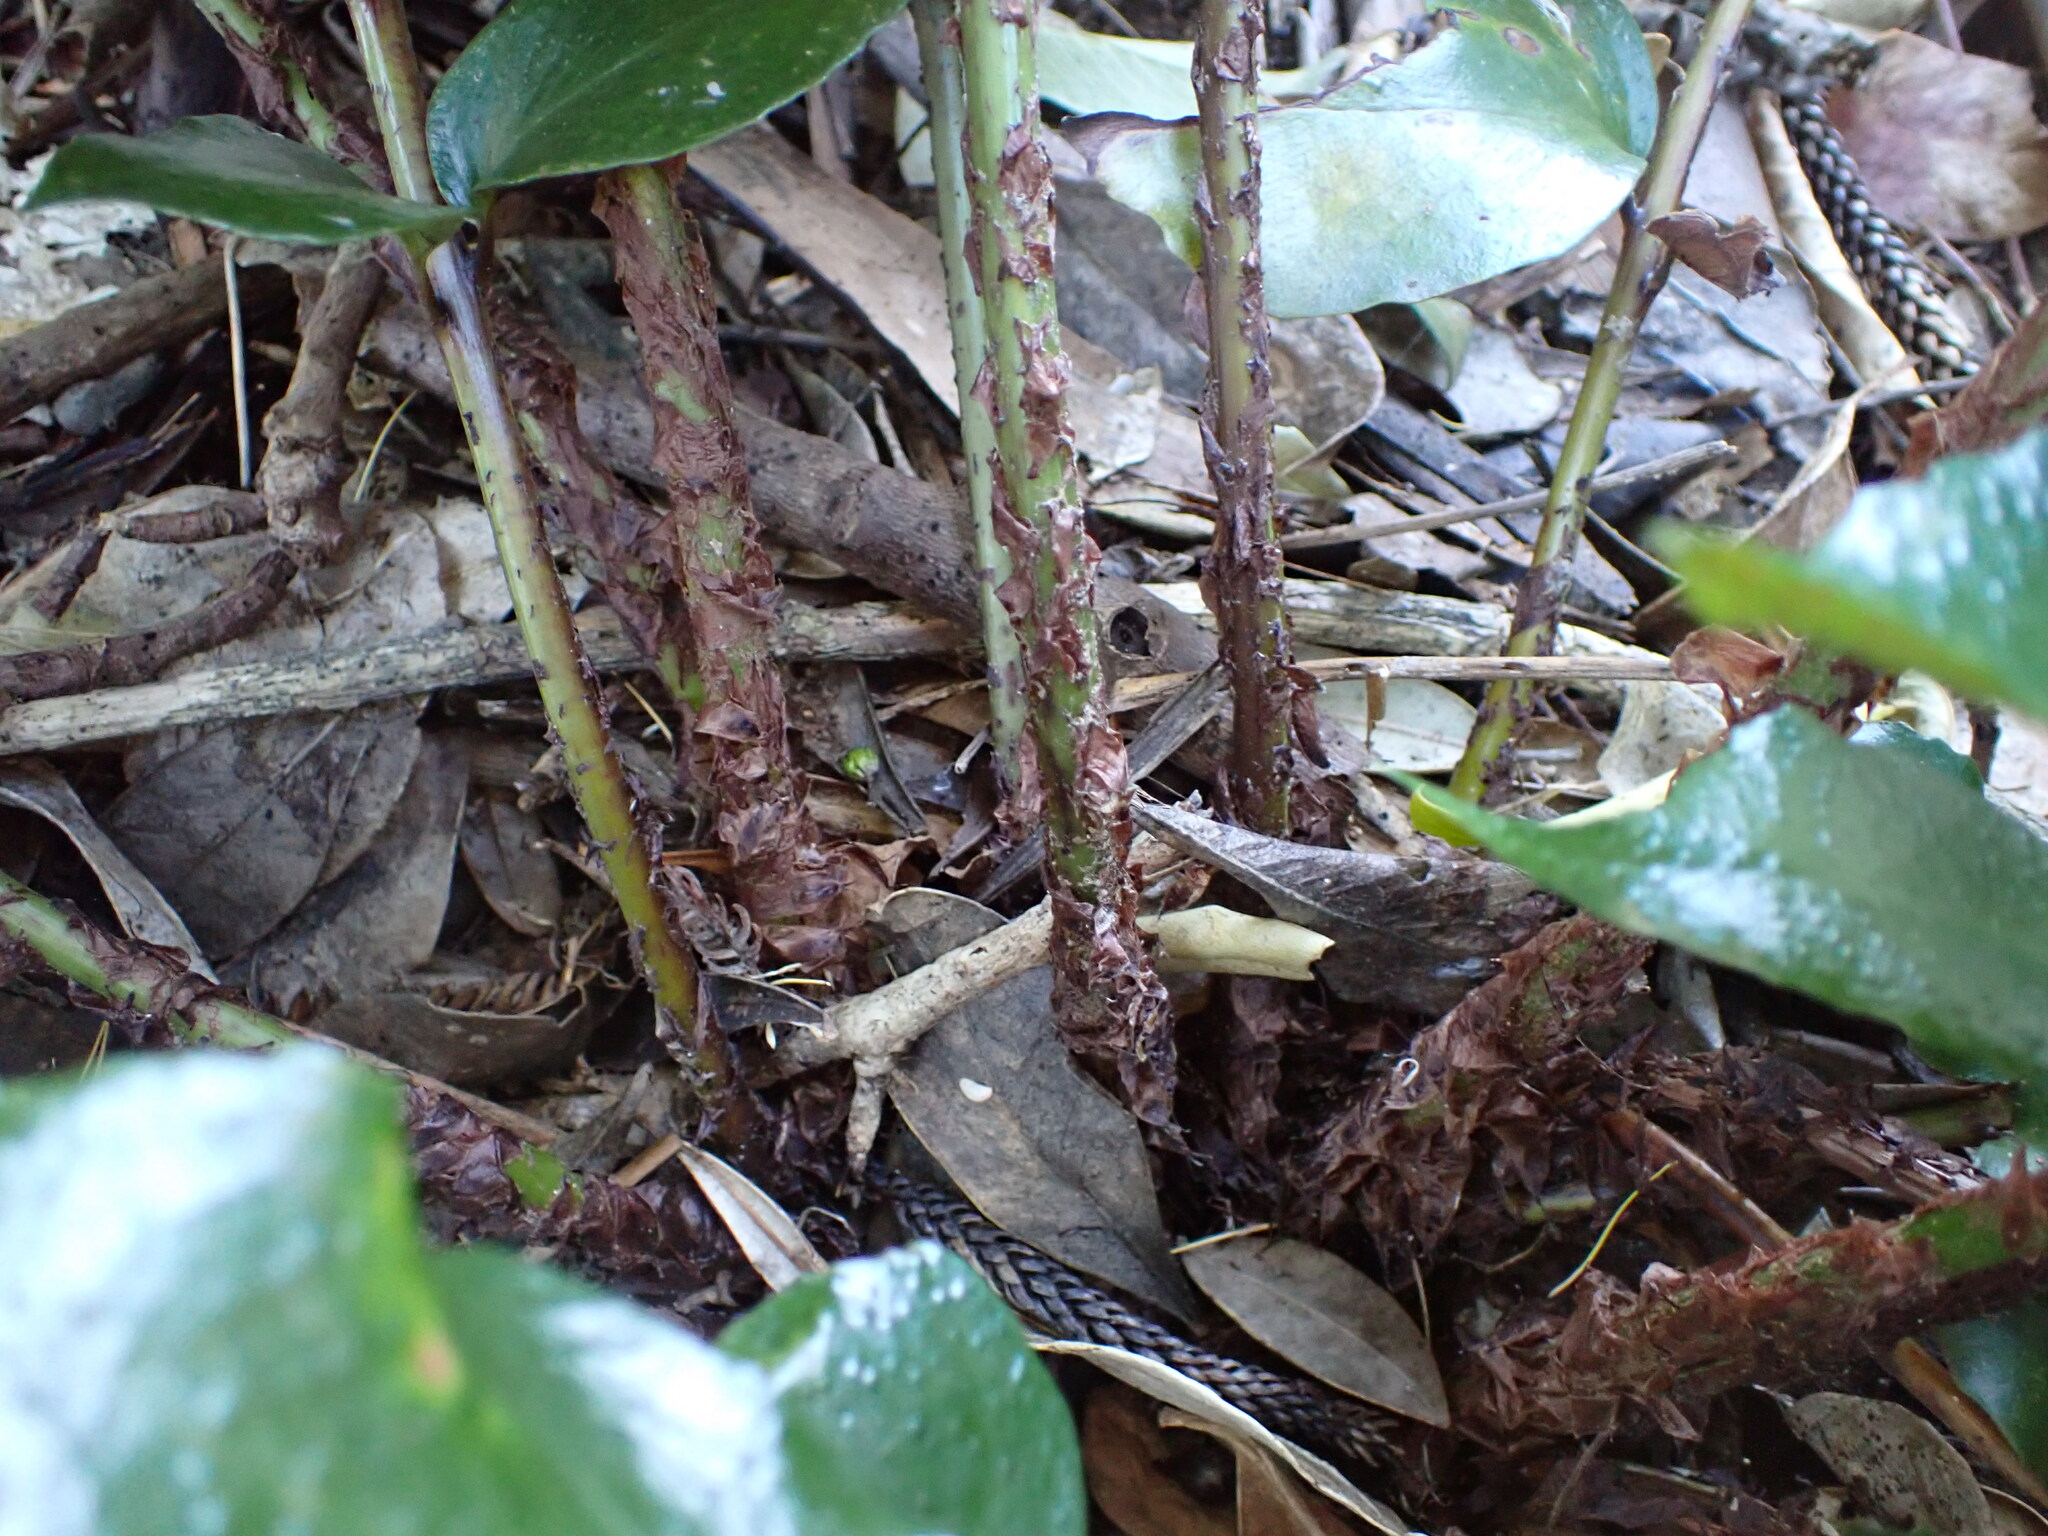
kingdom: Plantae
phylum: Tracheophyta
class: Polypodiopsida
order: Polypodiales
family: Dryopteridaceae
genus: Cyrtomium
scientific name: Cyrtomium falcatum
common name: House holly-fern
